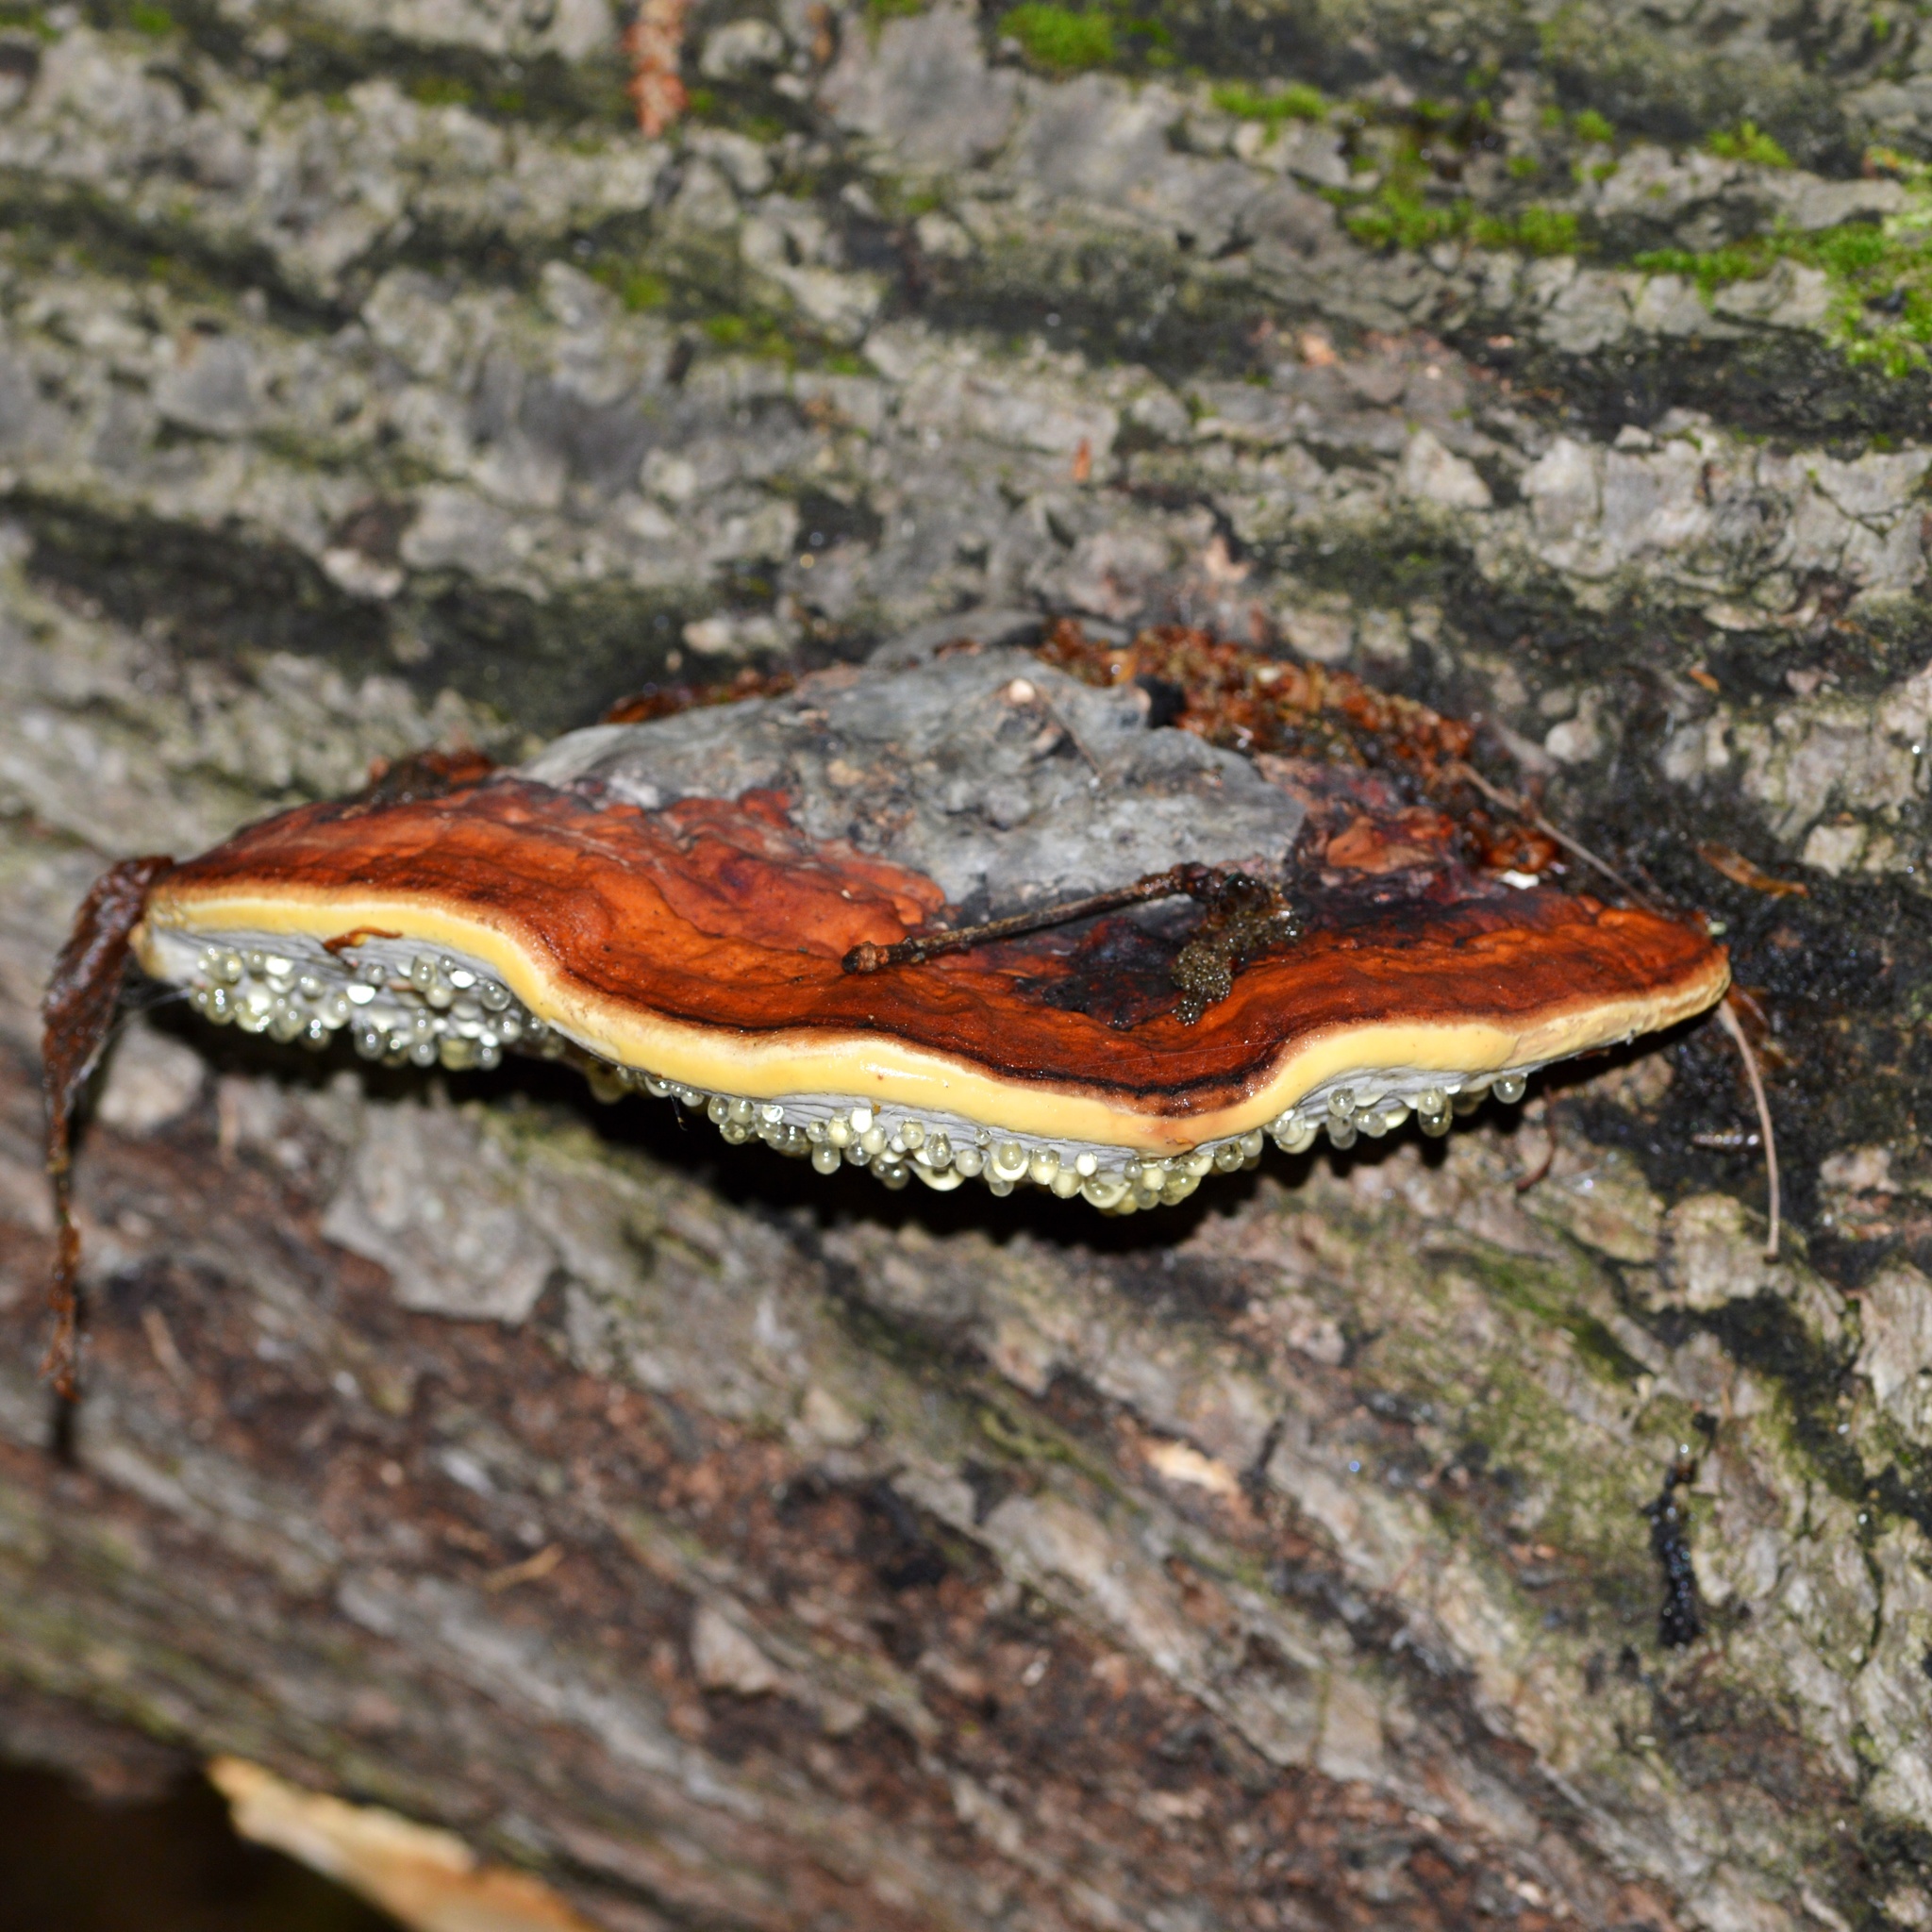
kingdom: Fungi
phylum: Basidiomycota
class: Agaricomycetes
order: Polyporales
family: Fomitopsidaceae
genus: Fomitopsis
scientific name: Fomitopsis pinicola
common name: Red-belted bracket
